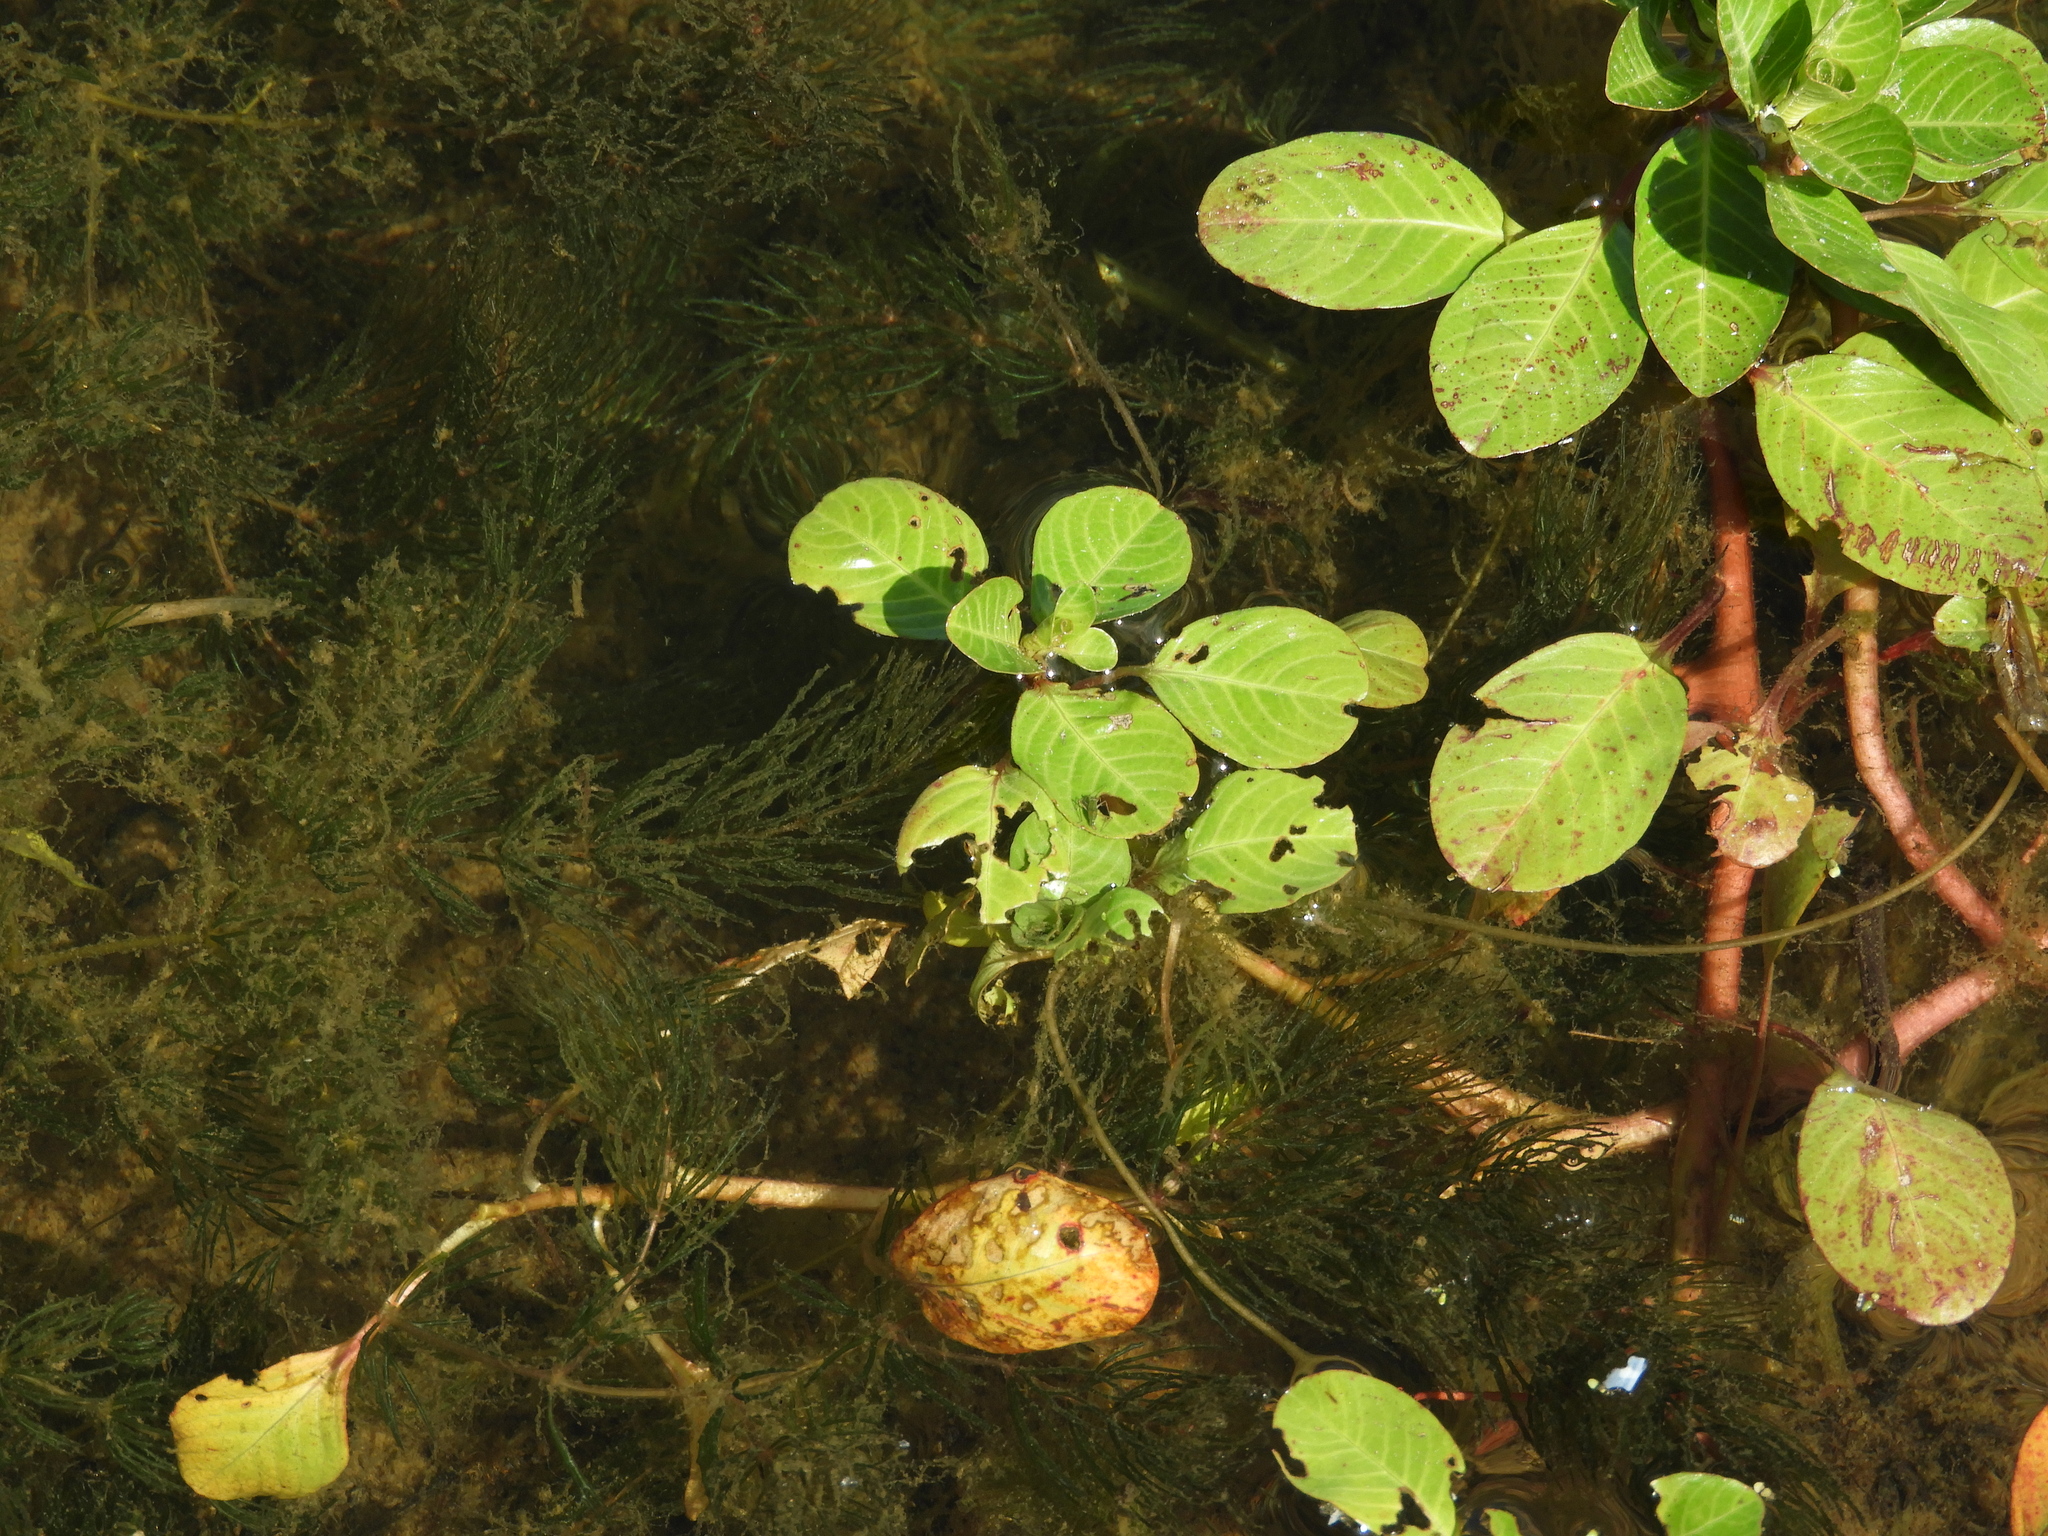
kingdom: Plantae
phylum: Tracheophyta
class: Magnoliopsida
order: Myrtales
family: Onagraceae
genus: Ludwigia
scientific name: Ludwigia peploides
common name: Floating primrose-willow
